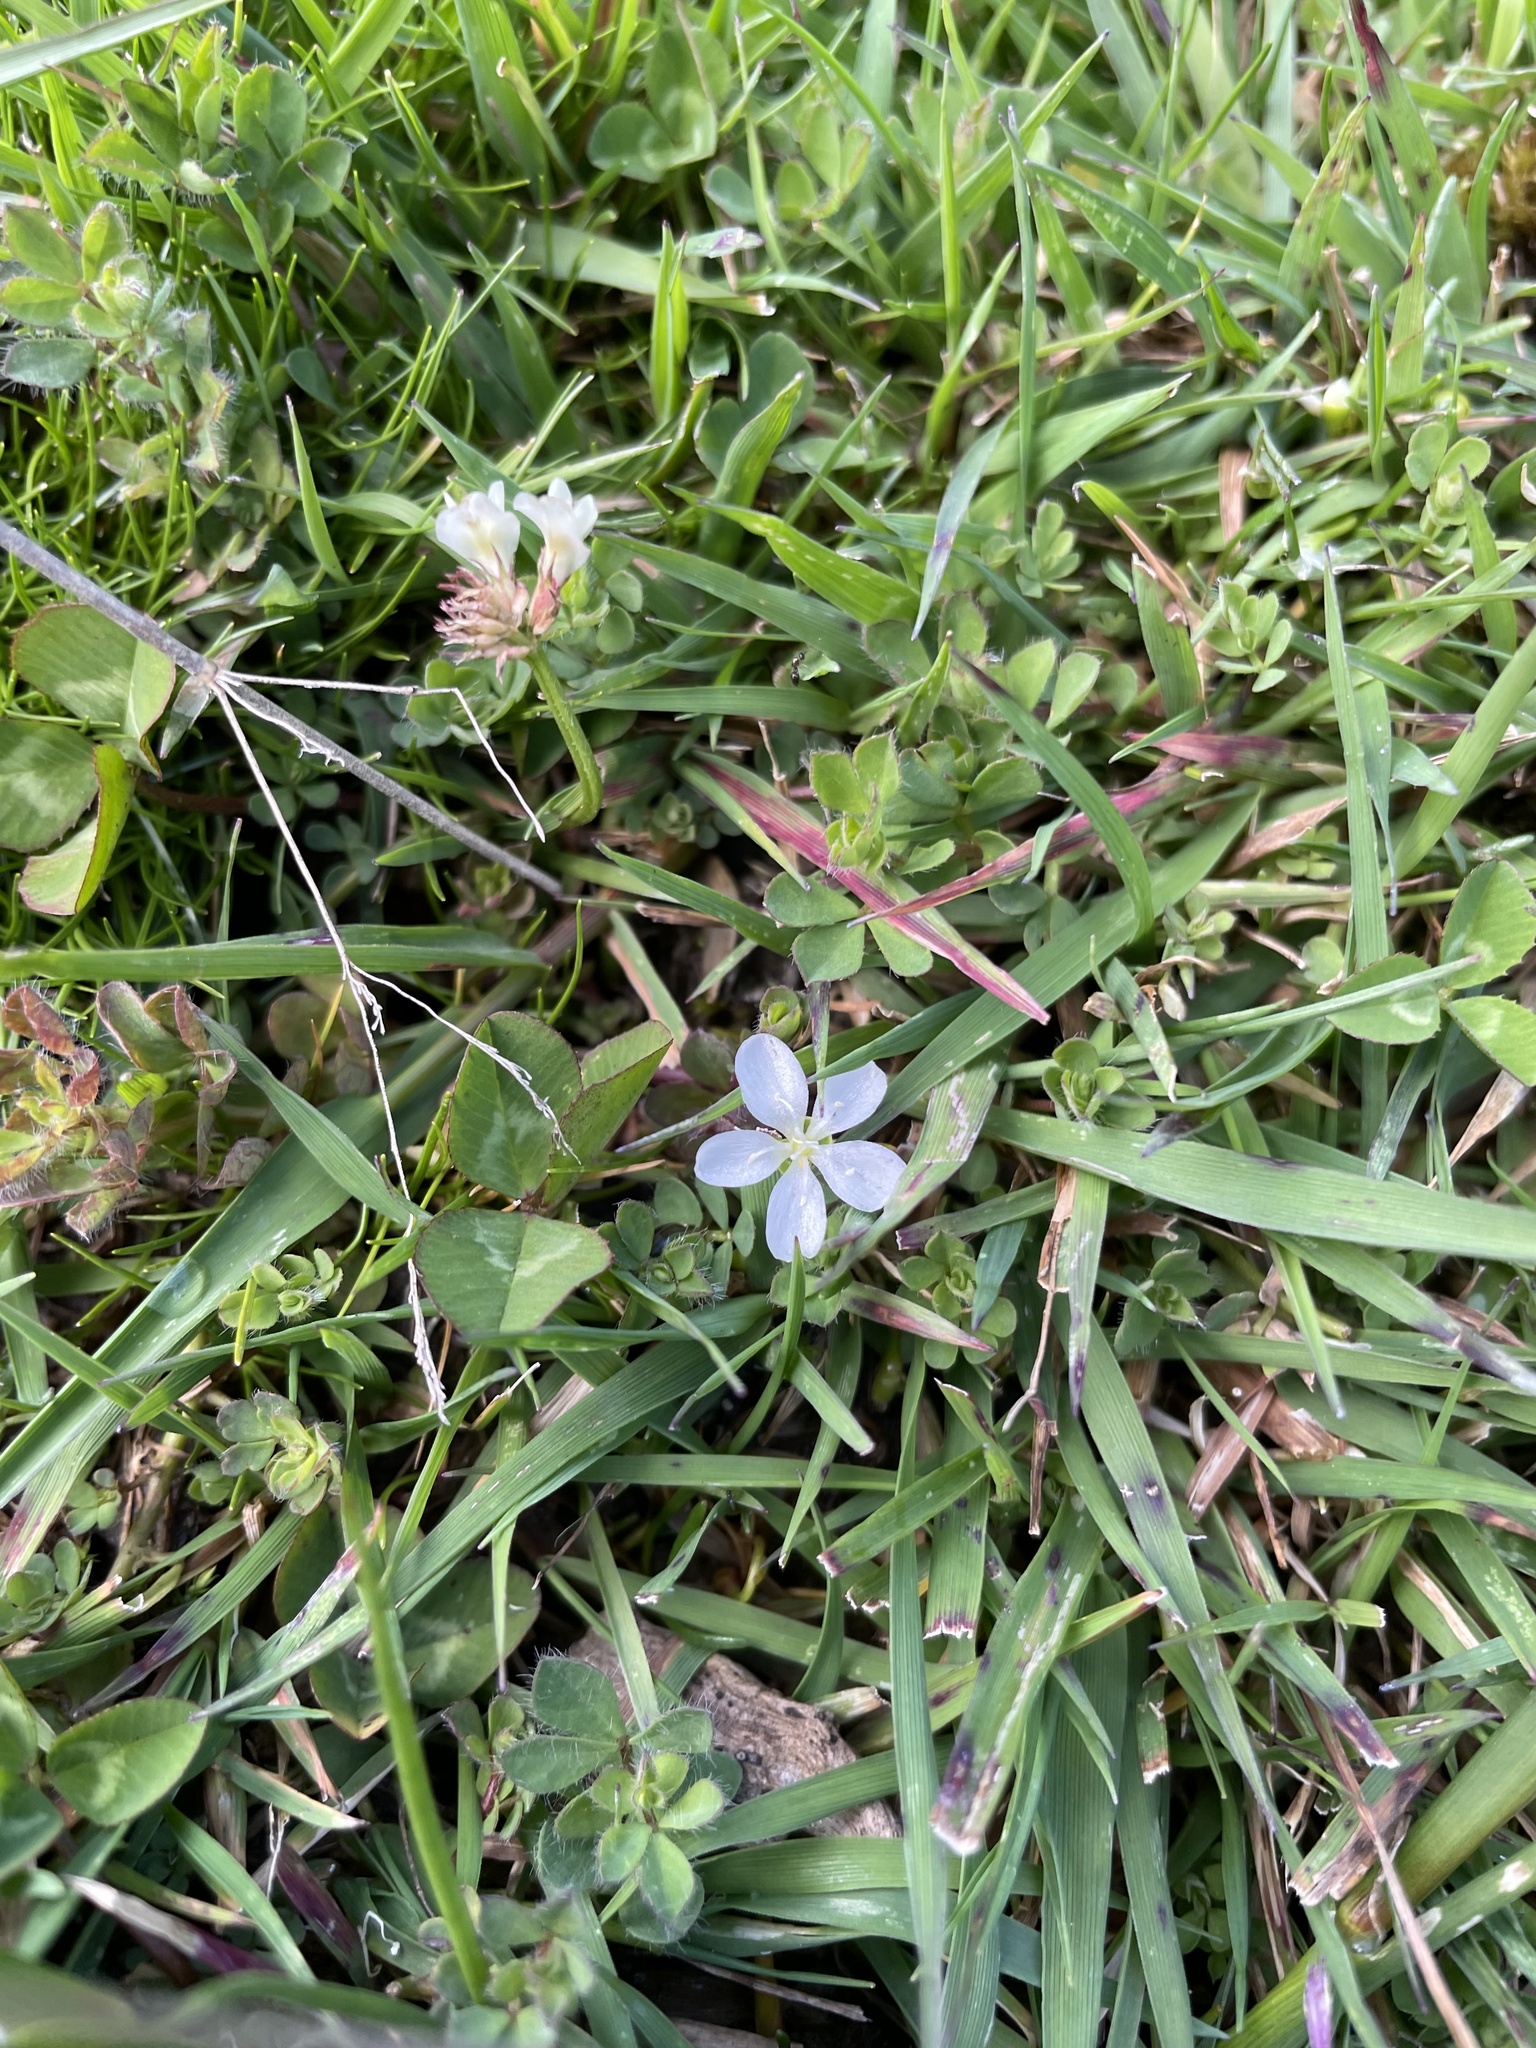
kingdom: Plantae
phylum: Tracheophyta
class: Magnoliopsida
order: Caryophyllales
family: Montiaceae
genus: Montia
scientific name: Montia australasica
